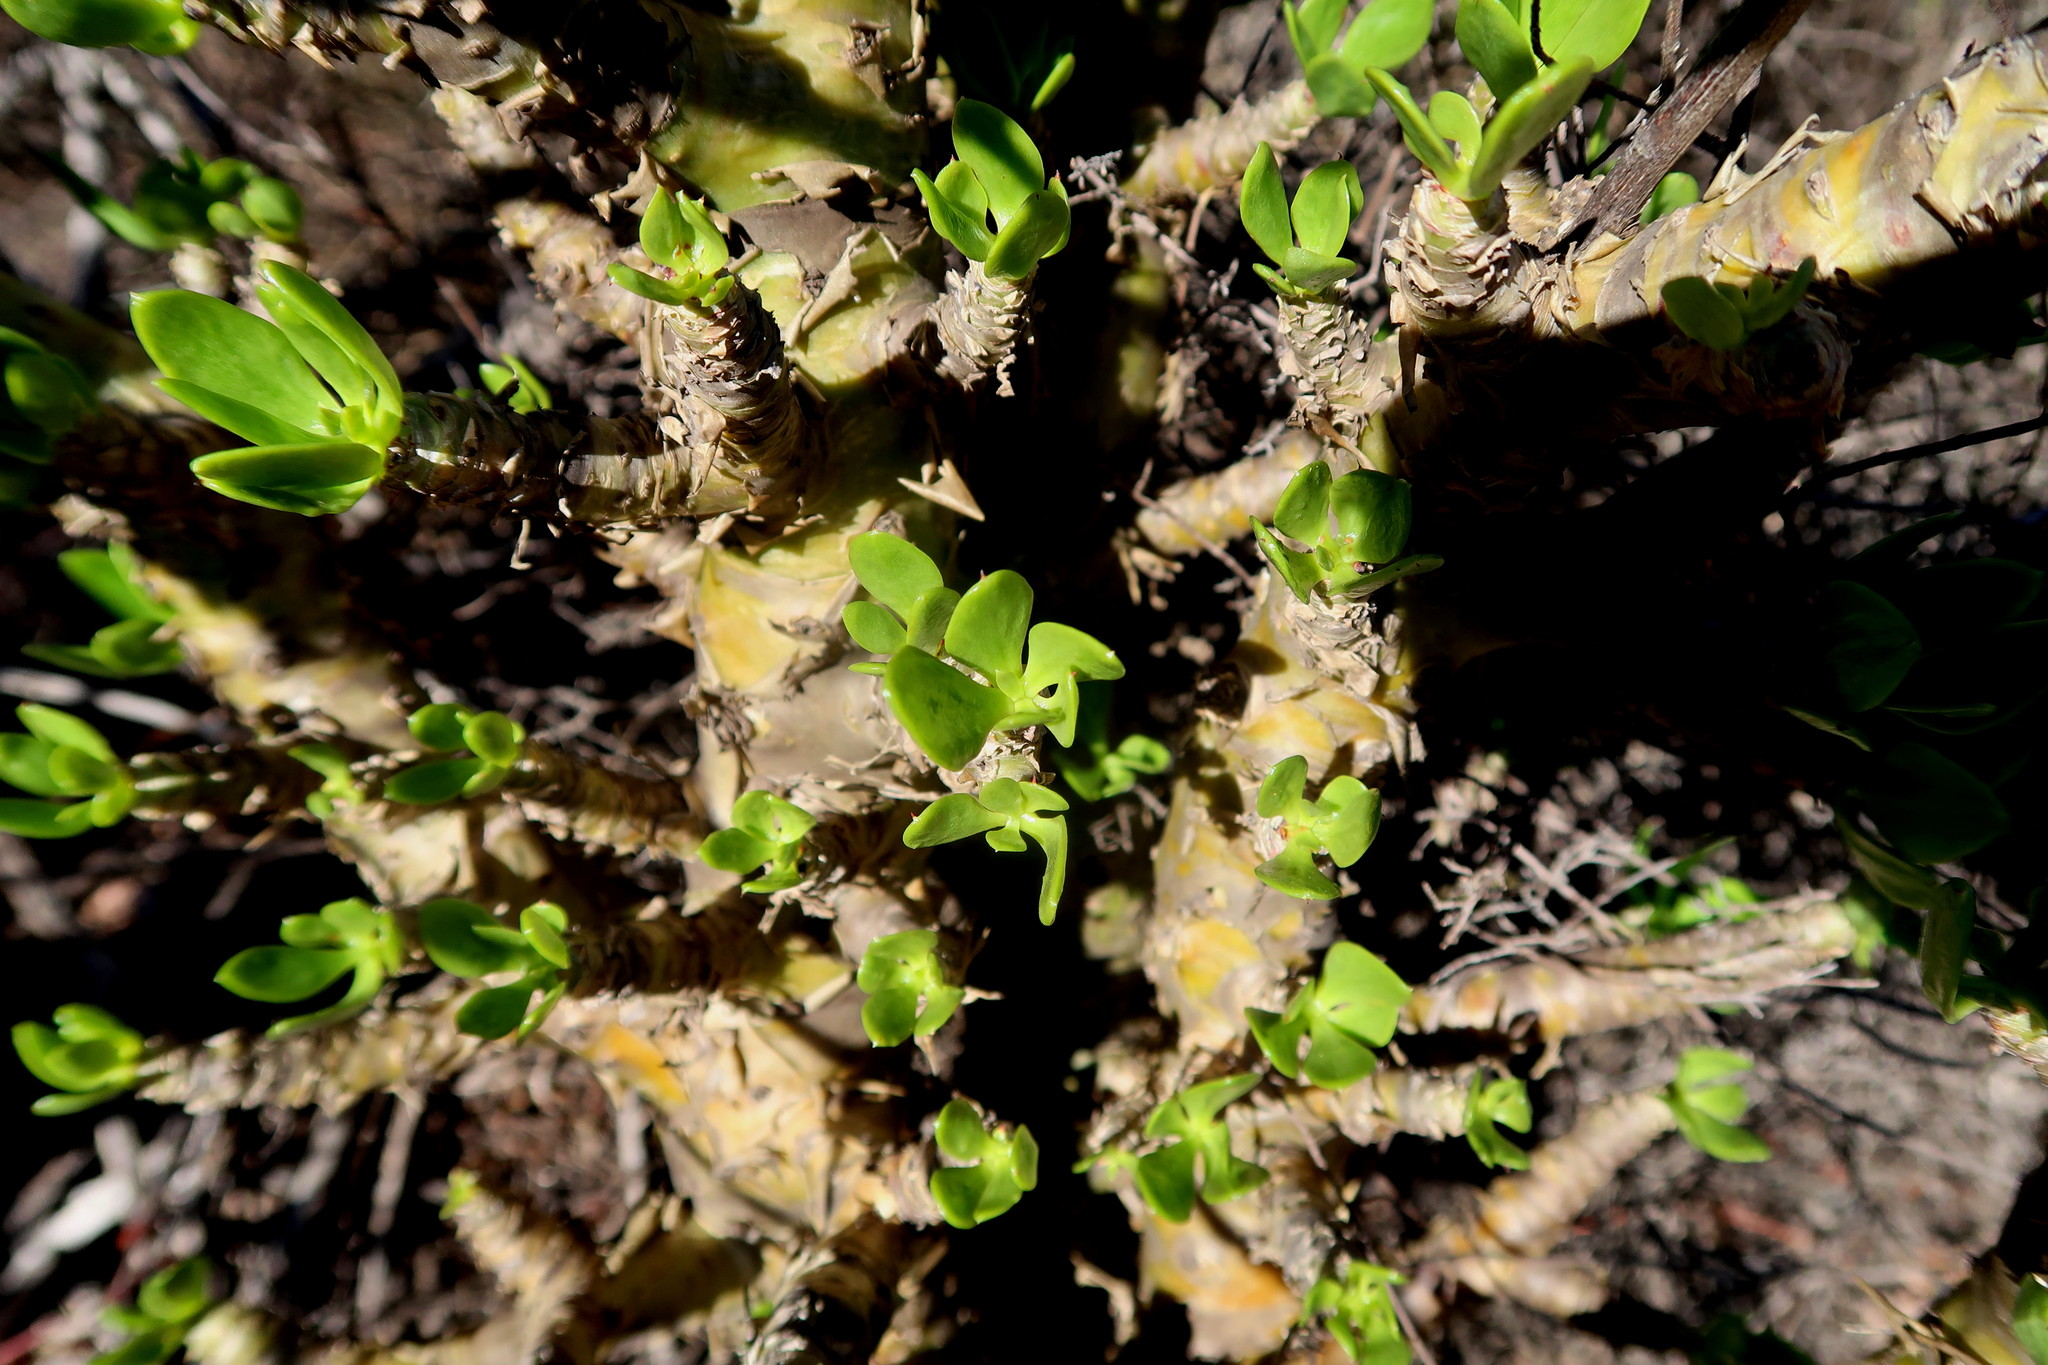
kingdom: Plantae
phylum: Tracheophyta
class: Magnoliopsida
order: Saxifragales
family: Crassulaceae
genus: Tylecodon
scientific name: Tylecodon paniculatus
